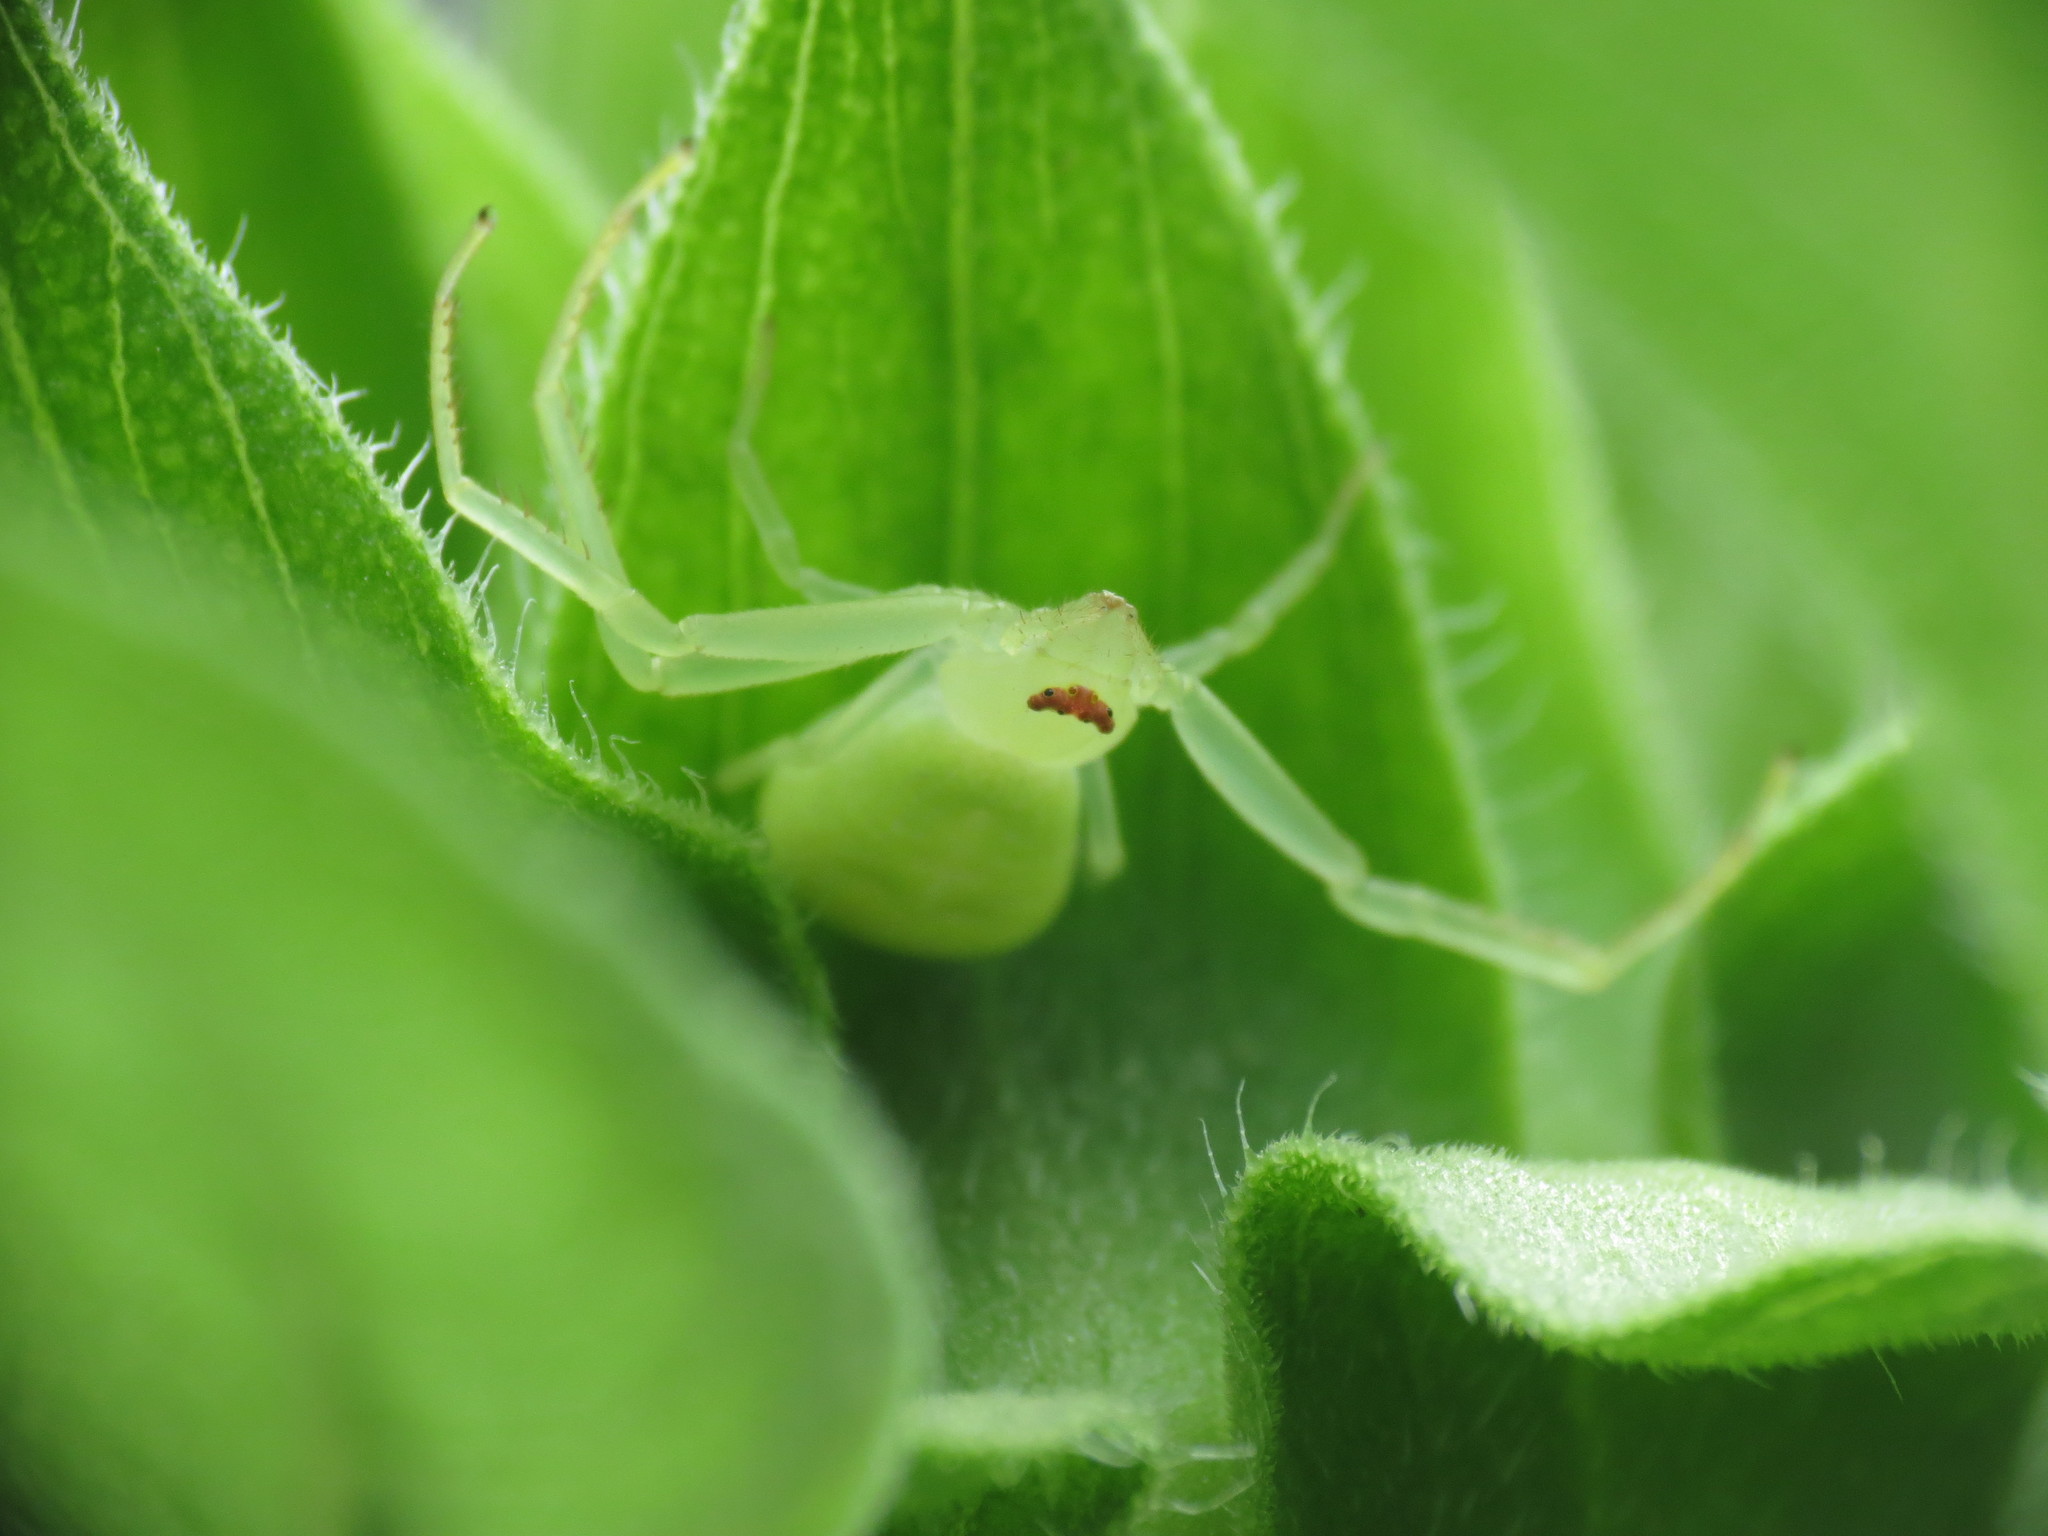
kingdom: Animalia
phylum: Arthropoda
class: Arachnida
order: Araneae
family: Thomisidae
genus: Misumessus
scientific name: Misumessus oblongus
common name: American green crab spider
